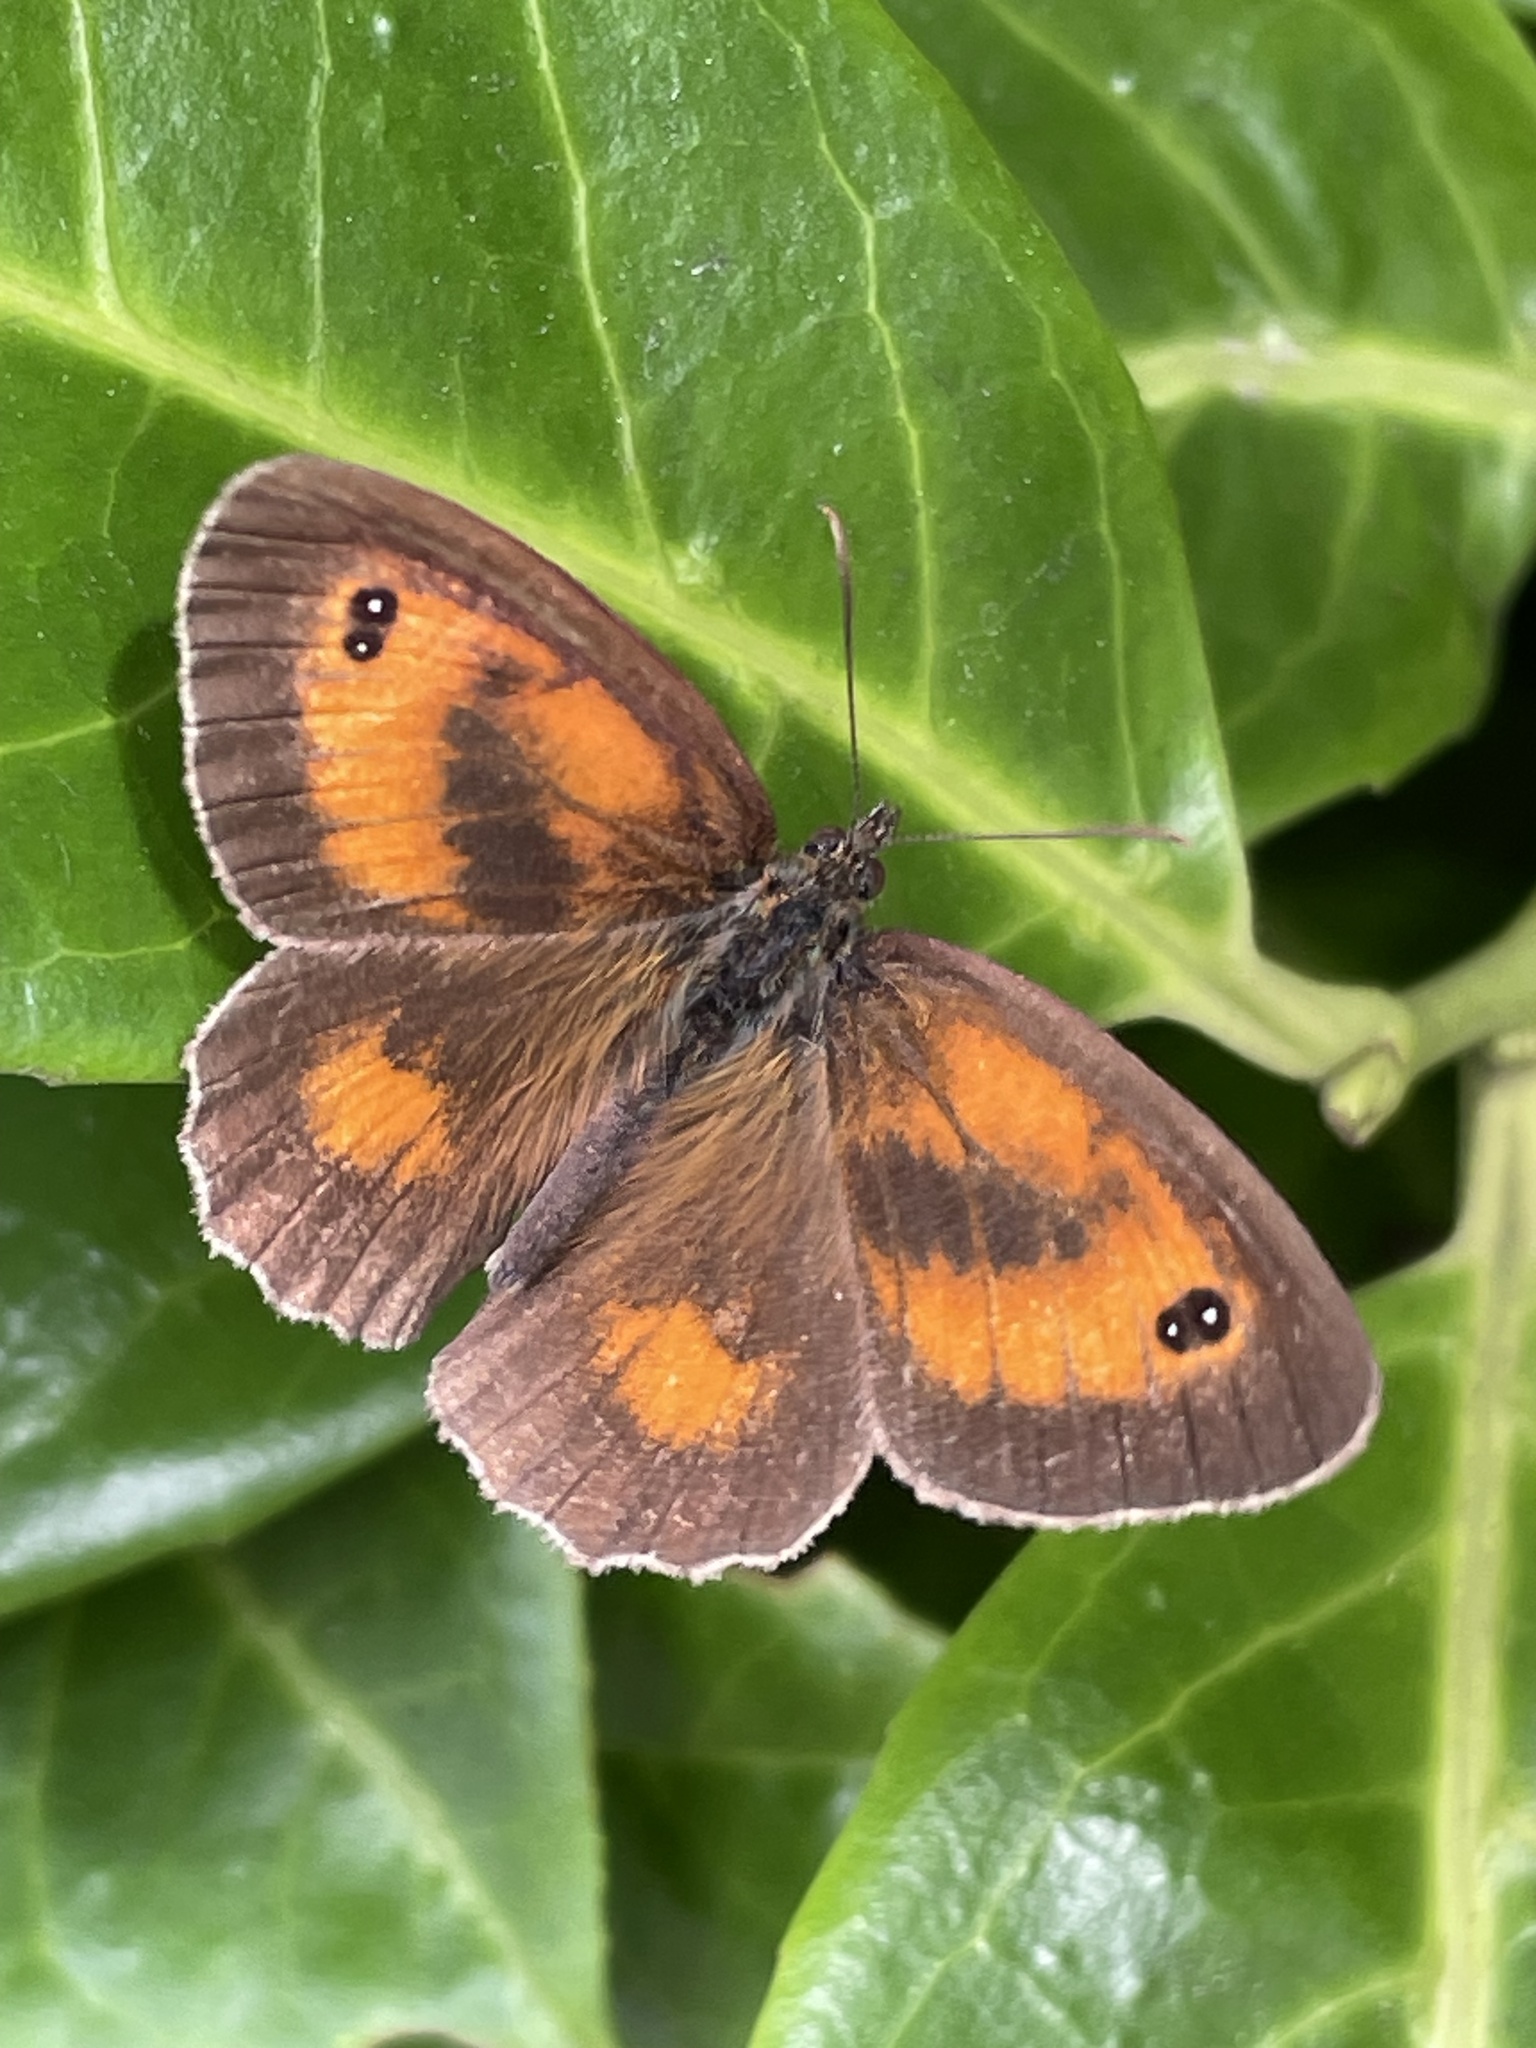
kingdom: Animalia
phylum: Arthropoda
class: Insecta
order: Lepidoptera
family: Nymphalidae
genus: Pyronia
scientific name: Pyronia tithonus
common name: Gatekeeper
